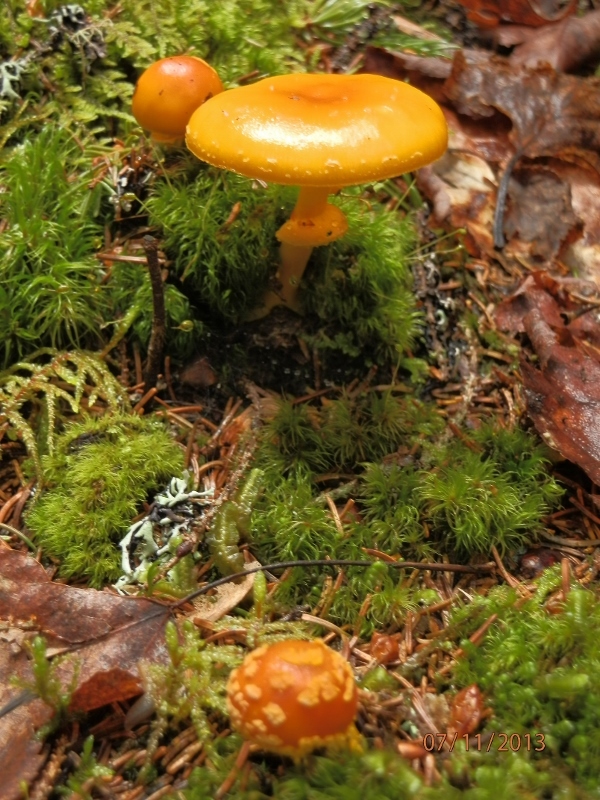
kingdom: Fungi
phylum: Basidiomycota
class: Agaricomycetes
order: Agaricales
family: Amanitaceae
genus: Amanita
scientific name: Amanita flavoconia
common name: Yellow patches
